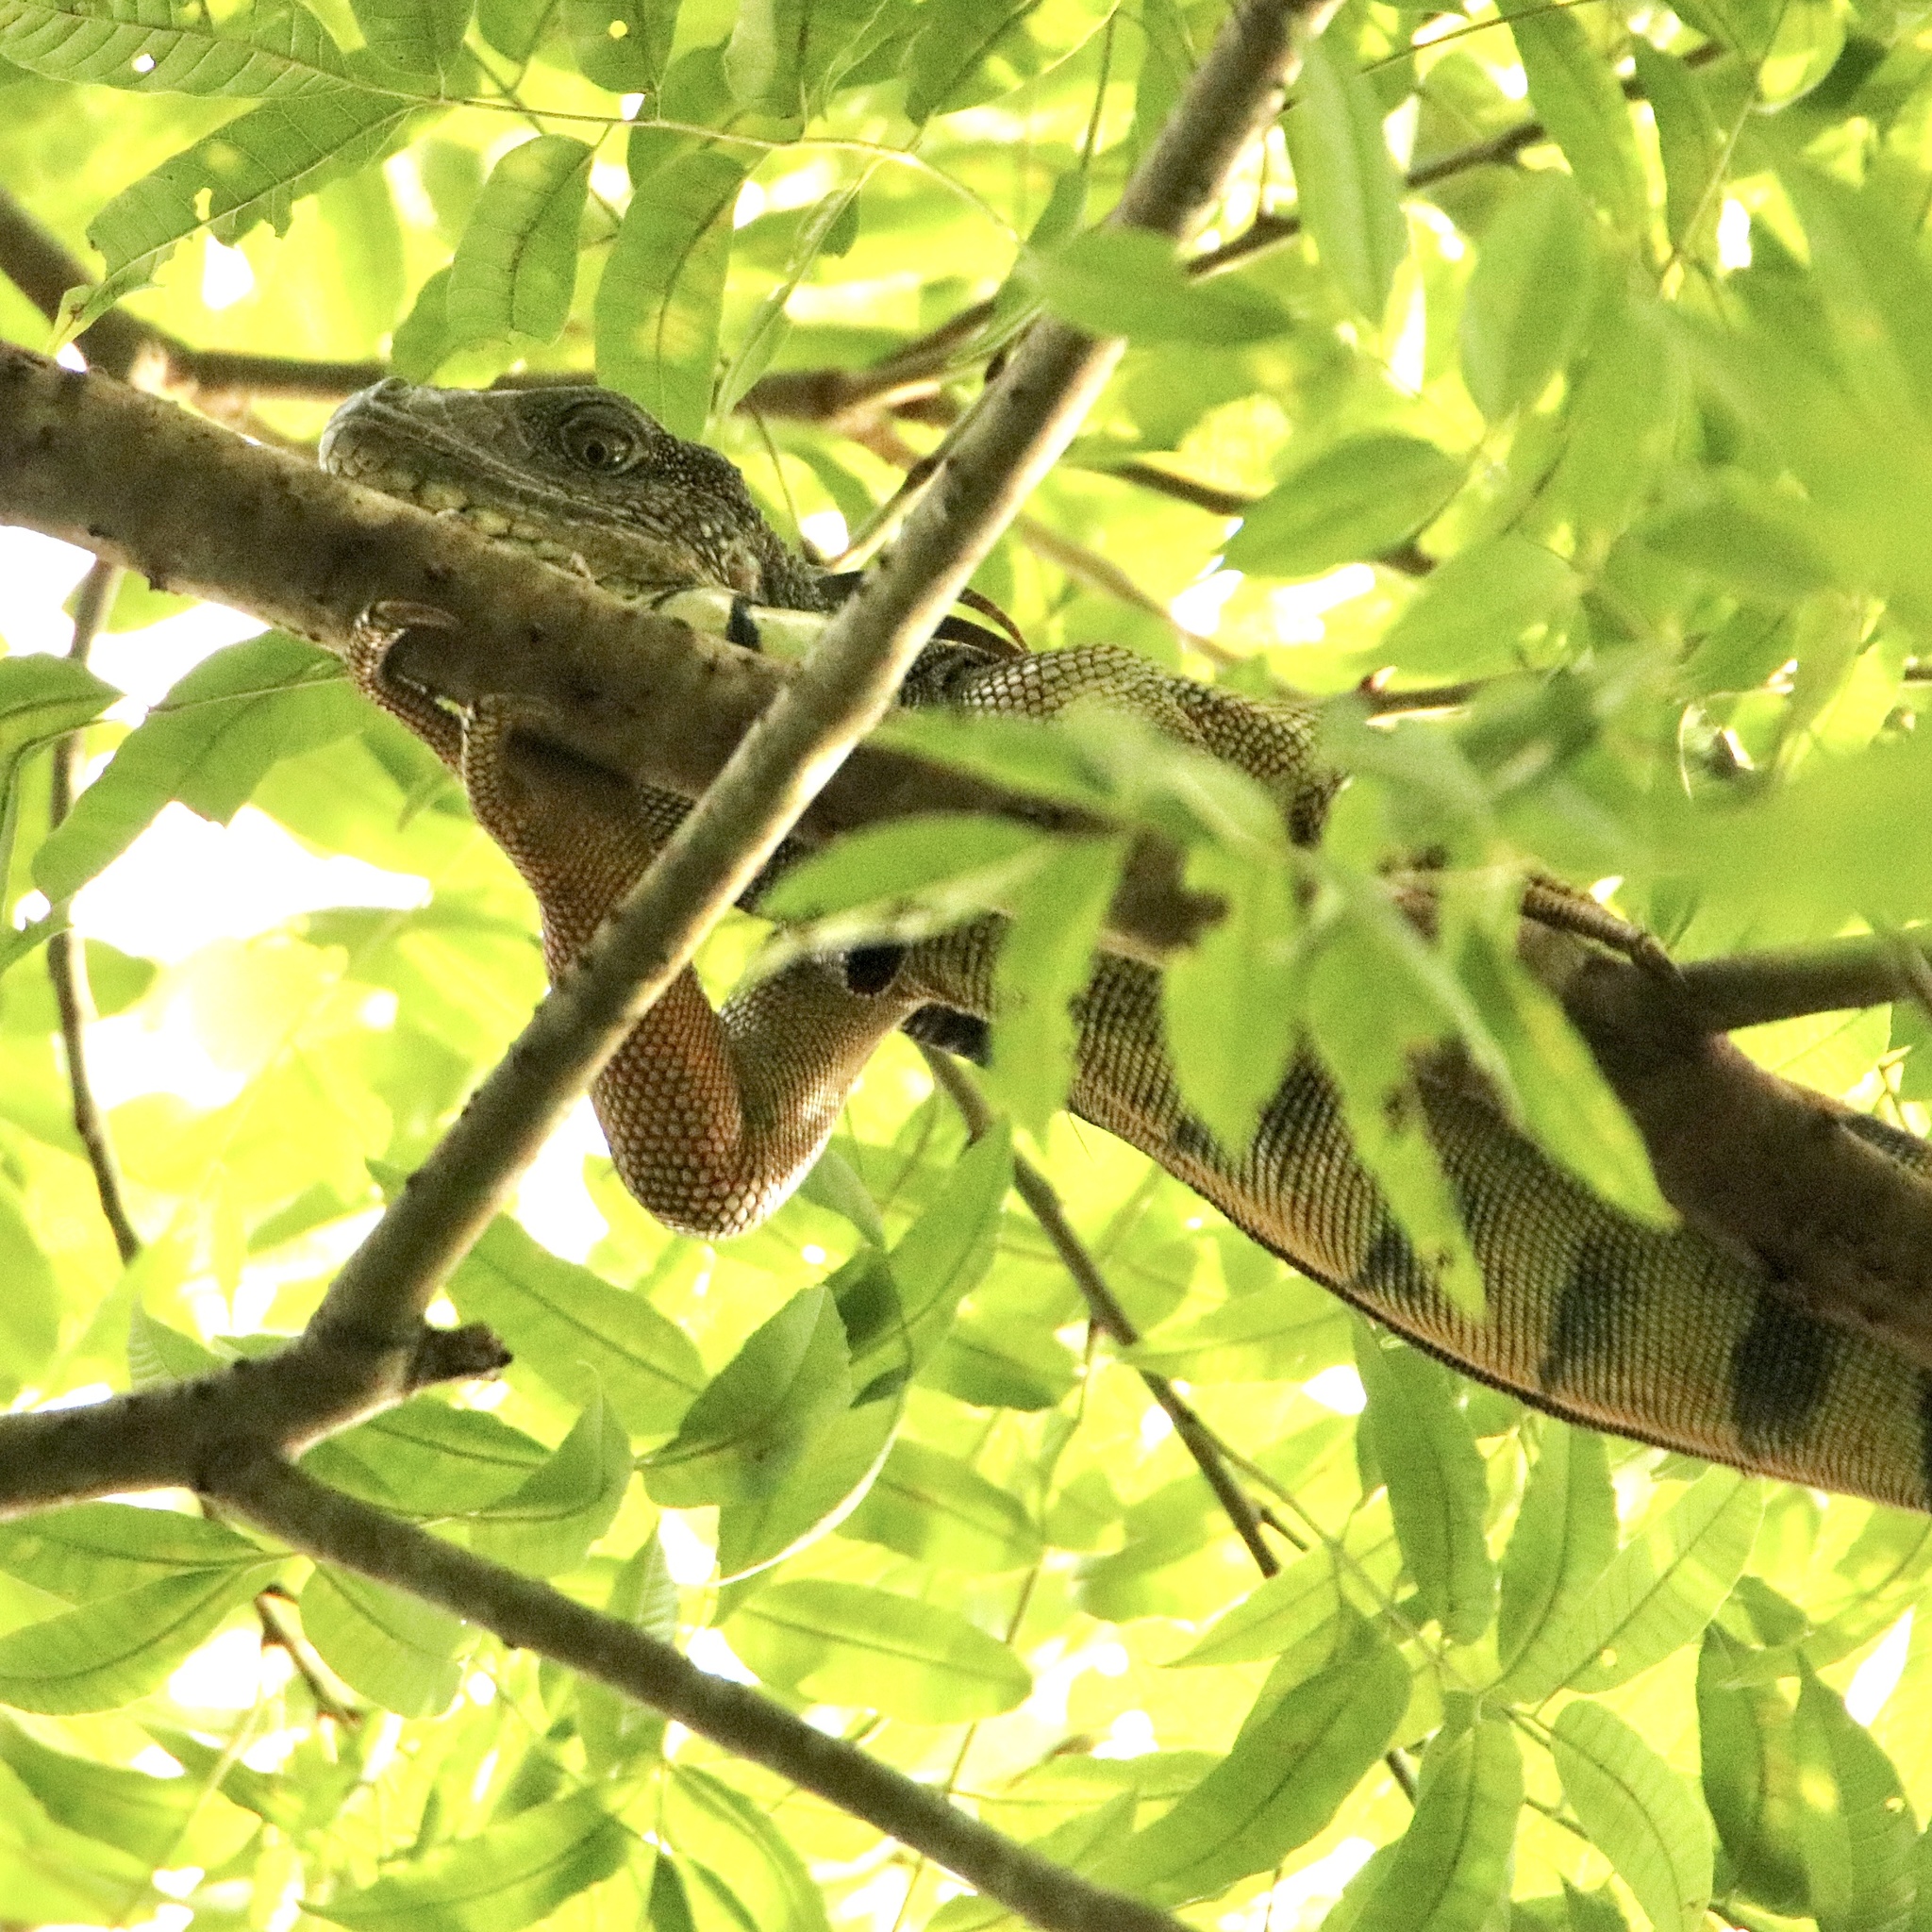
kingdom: Animalia
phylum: Chordata
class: Squamata
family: Iguanidae
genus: Iguana
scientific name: Iguana iguana
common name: Green iguana
